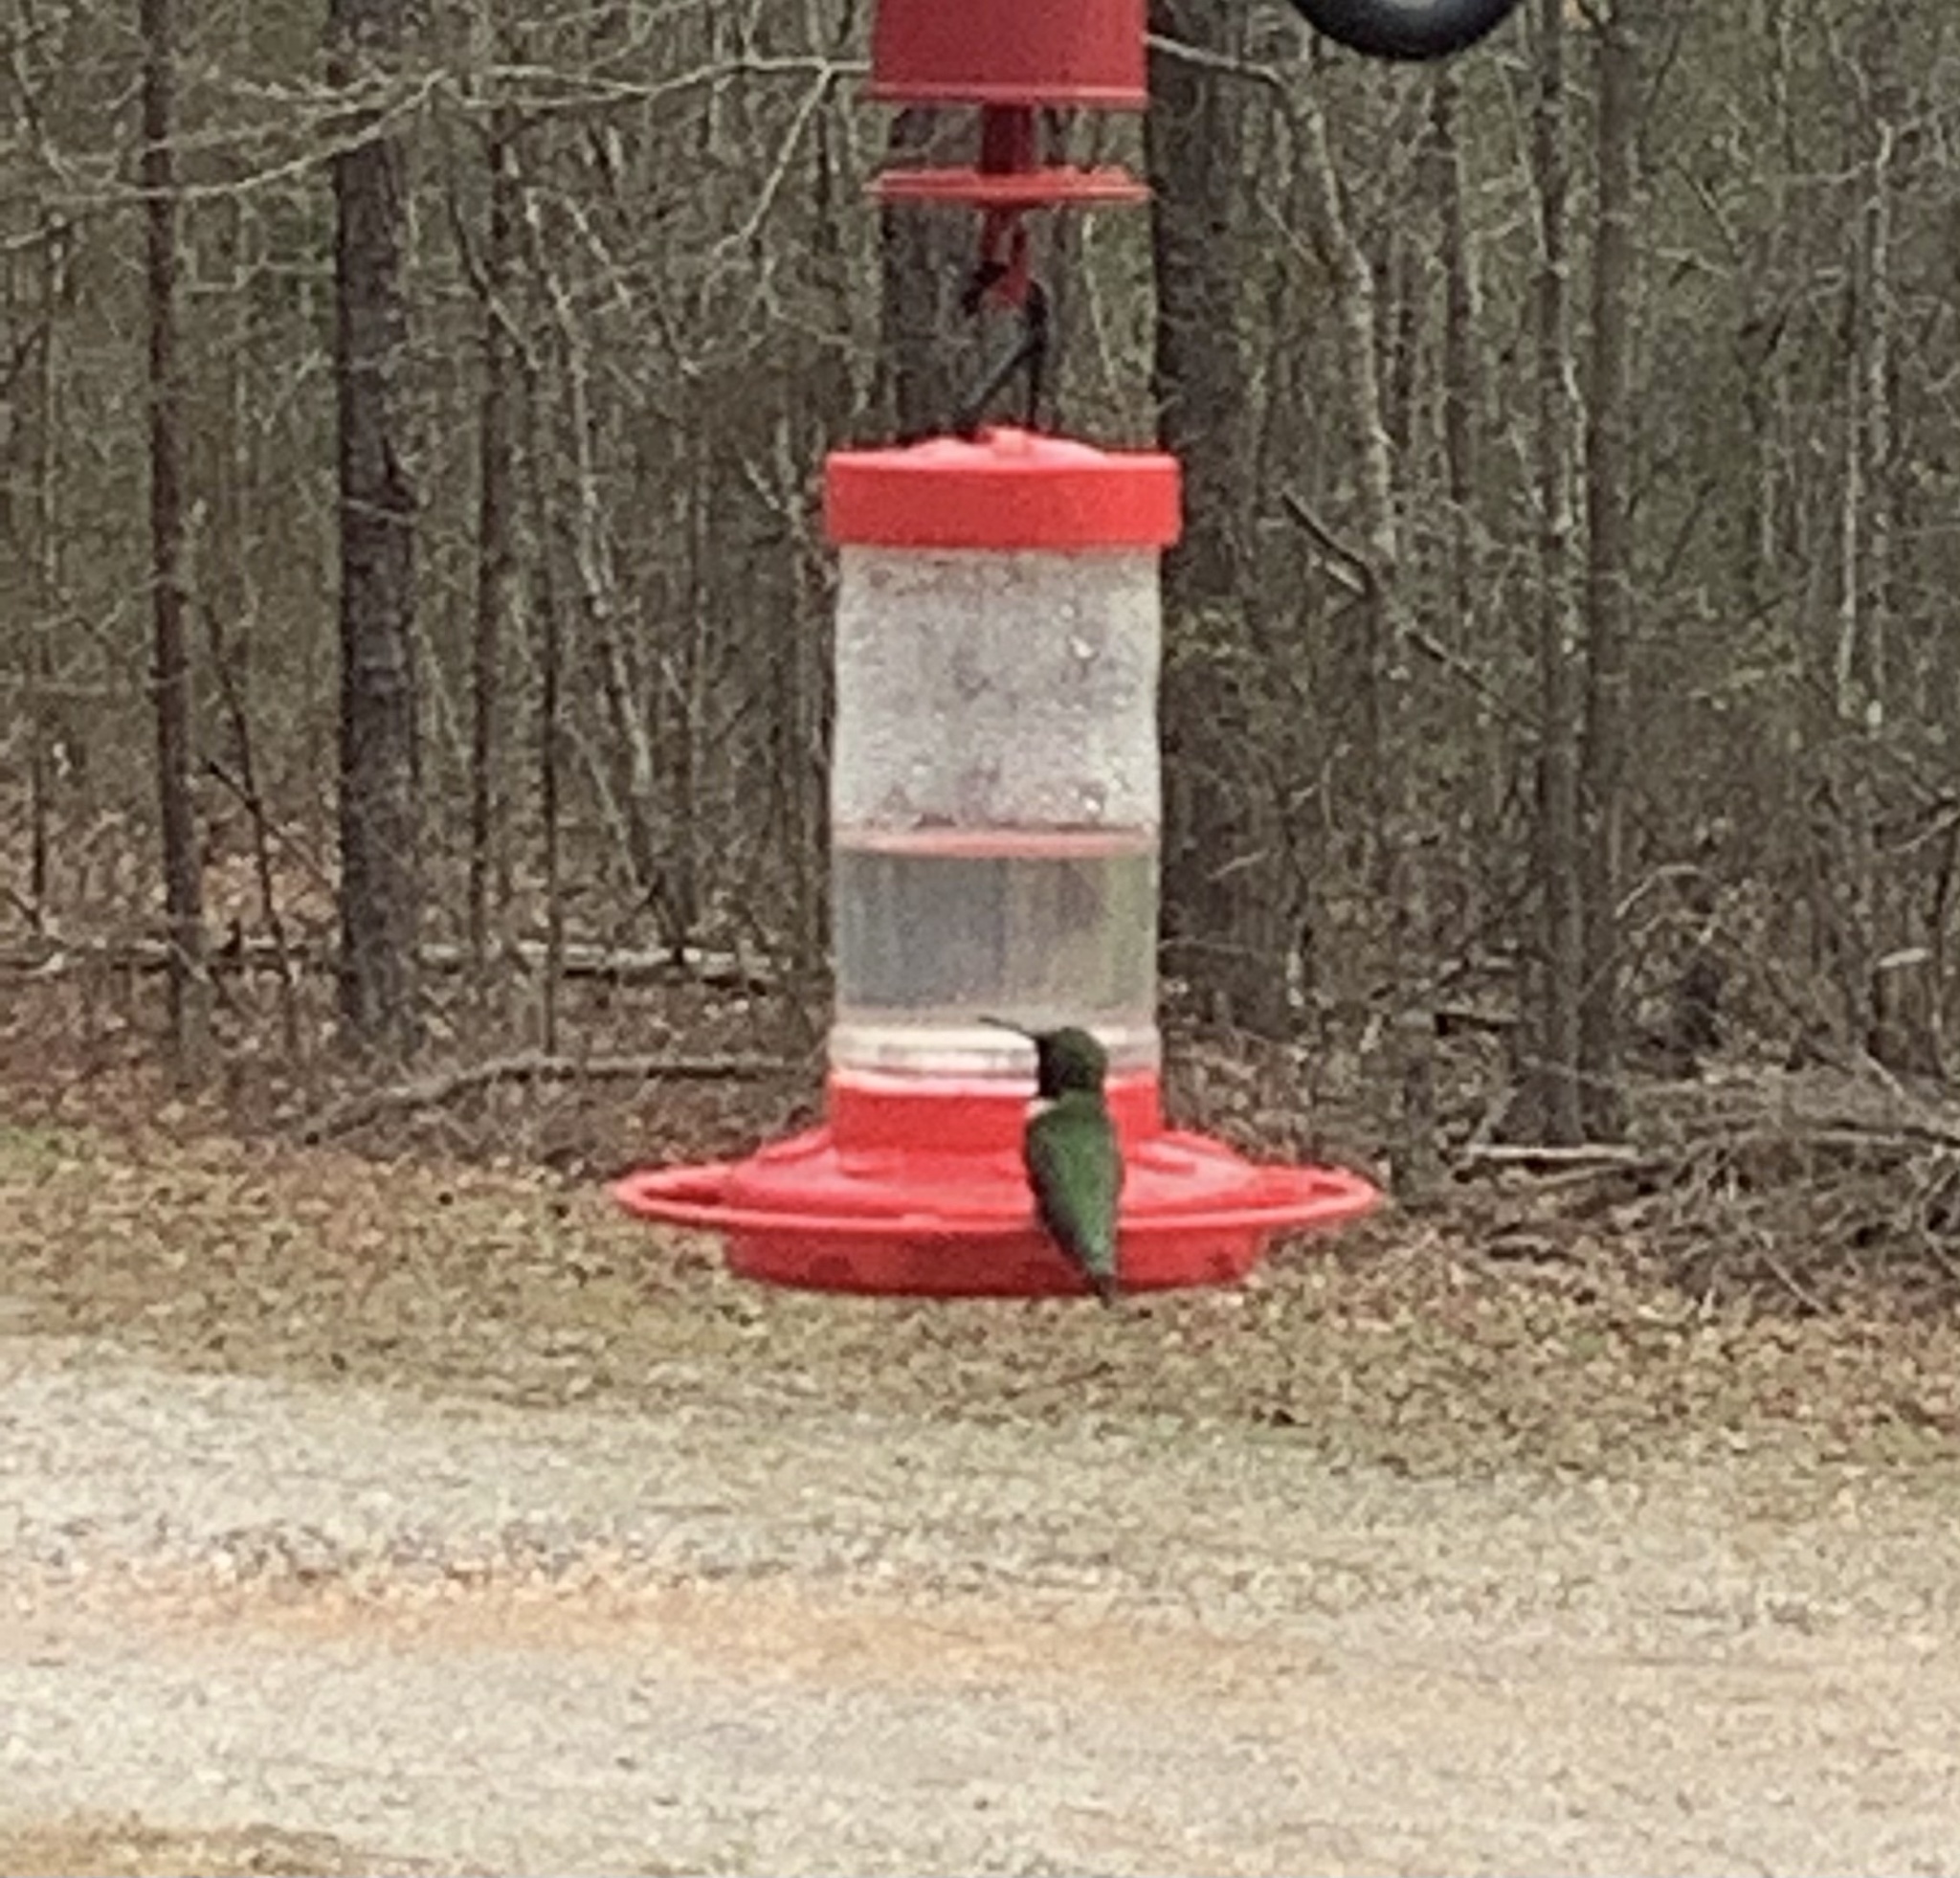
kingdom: Animalia
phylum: Chordata
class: Aves
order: Apodiformes
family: Trochilidae
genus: Archilochus
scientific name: Archilochus colubris
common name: Ruby-throated hummingbird
